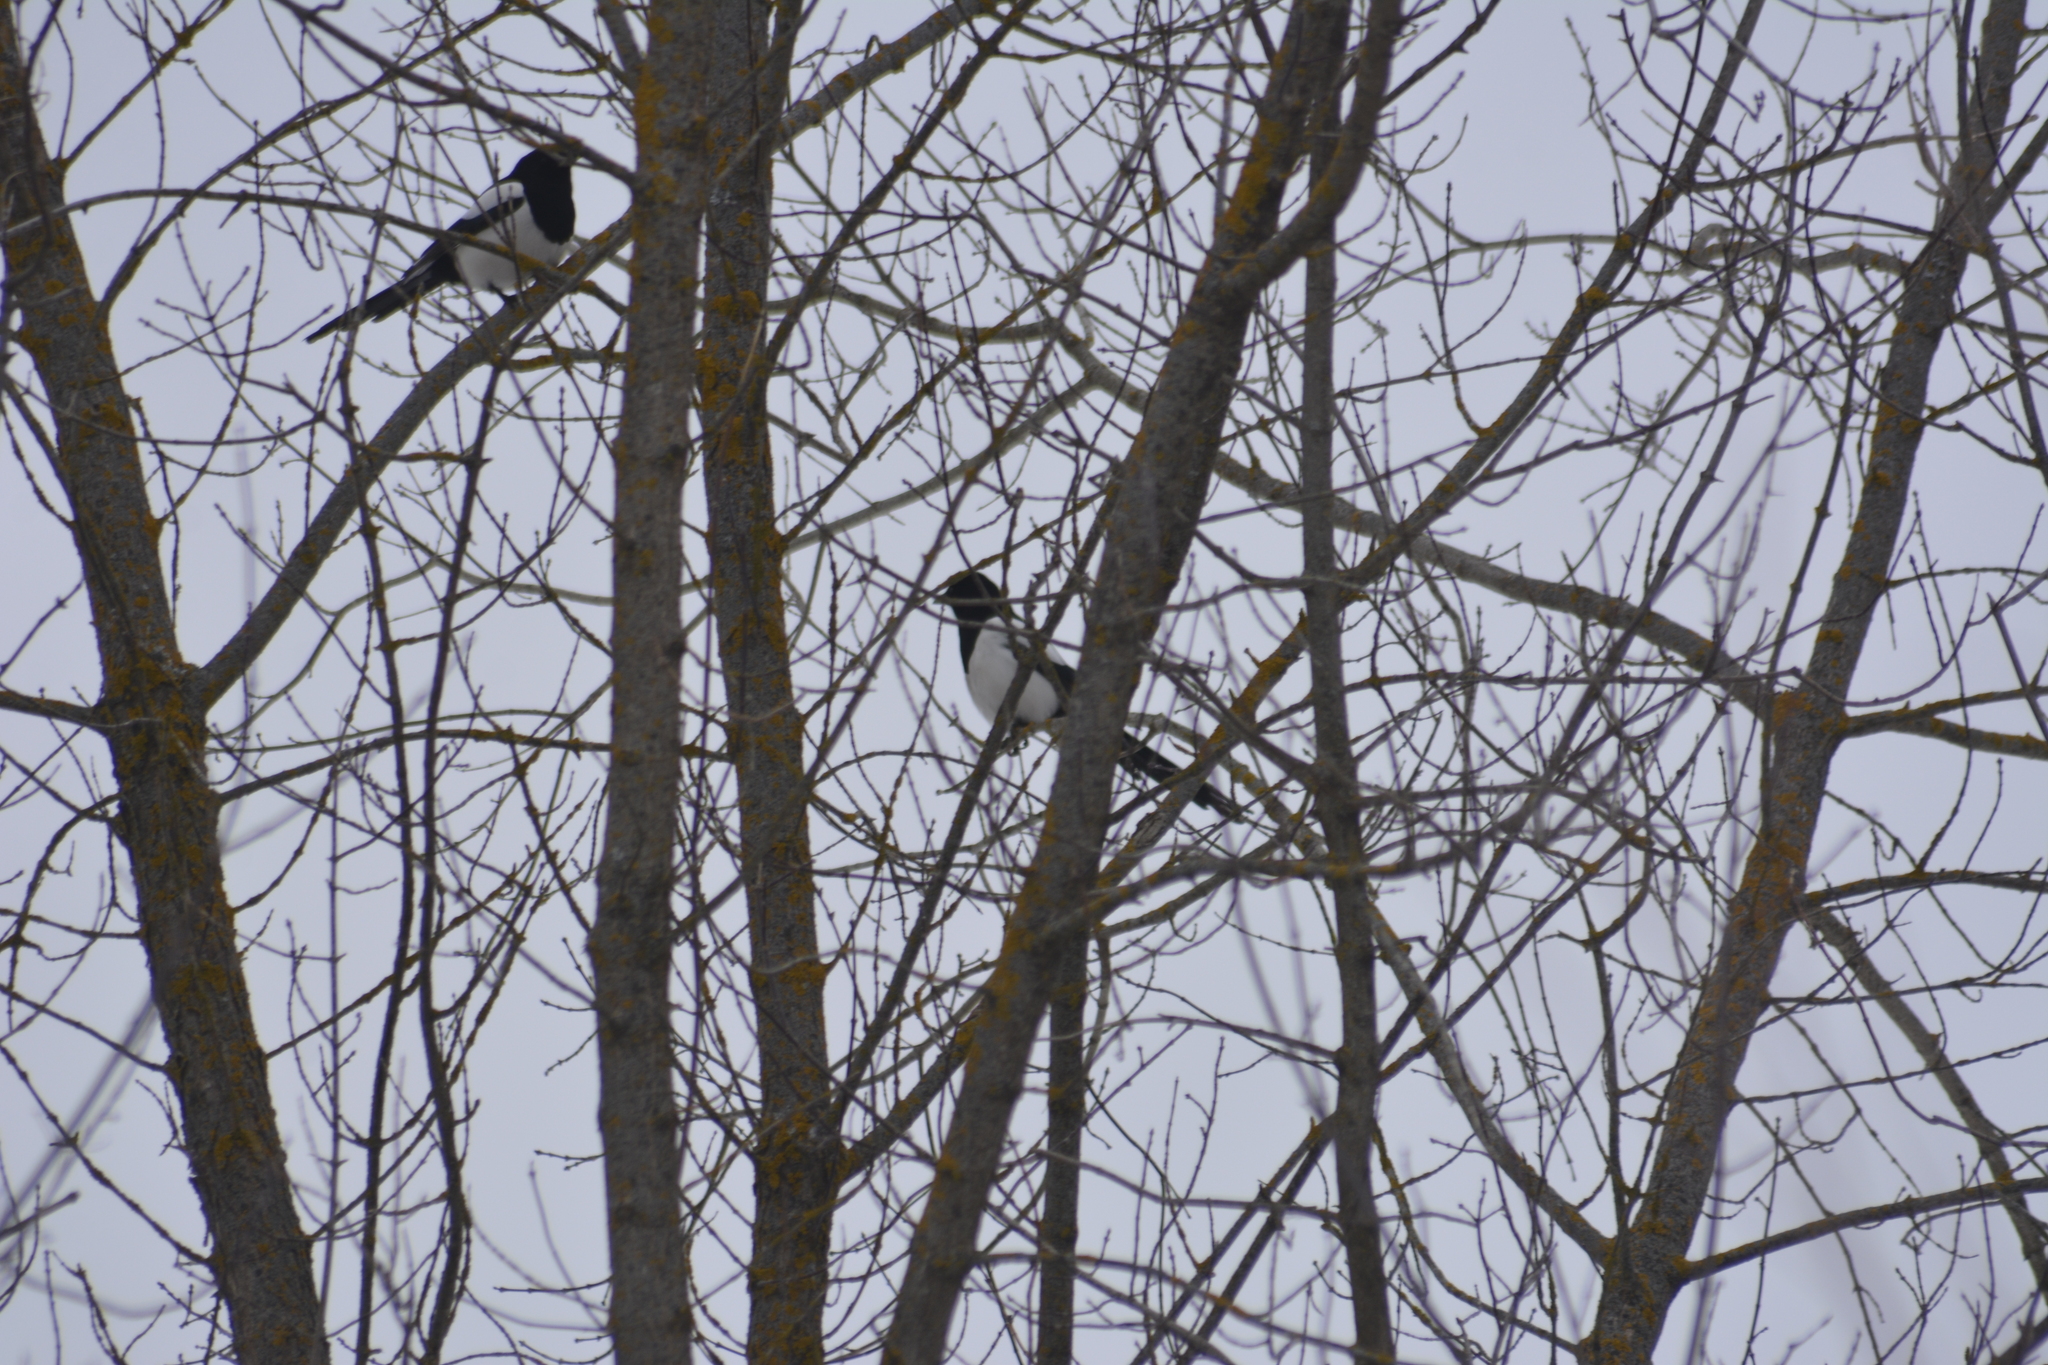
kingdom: Animalia
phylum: Chordata
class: Aves
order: Passeriformes
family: Corvidae
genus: Pica
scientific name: Pica pica
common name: Eurasian magpie
